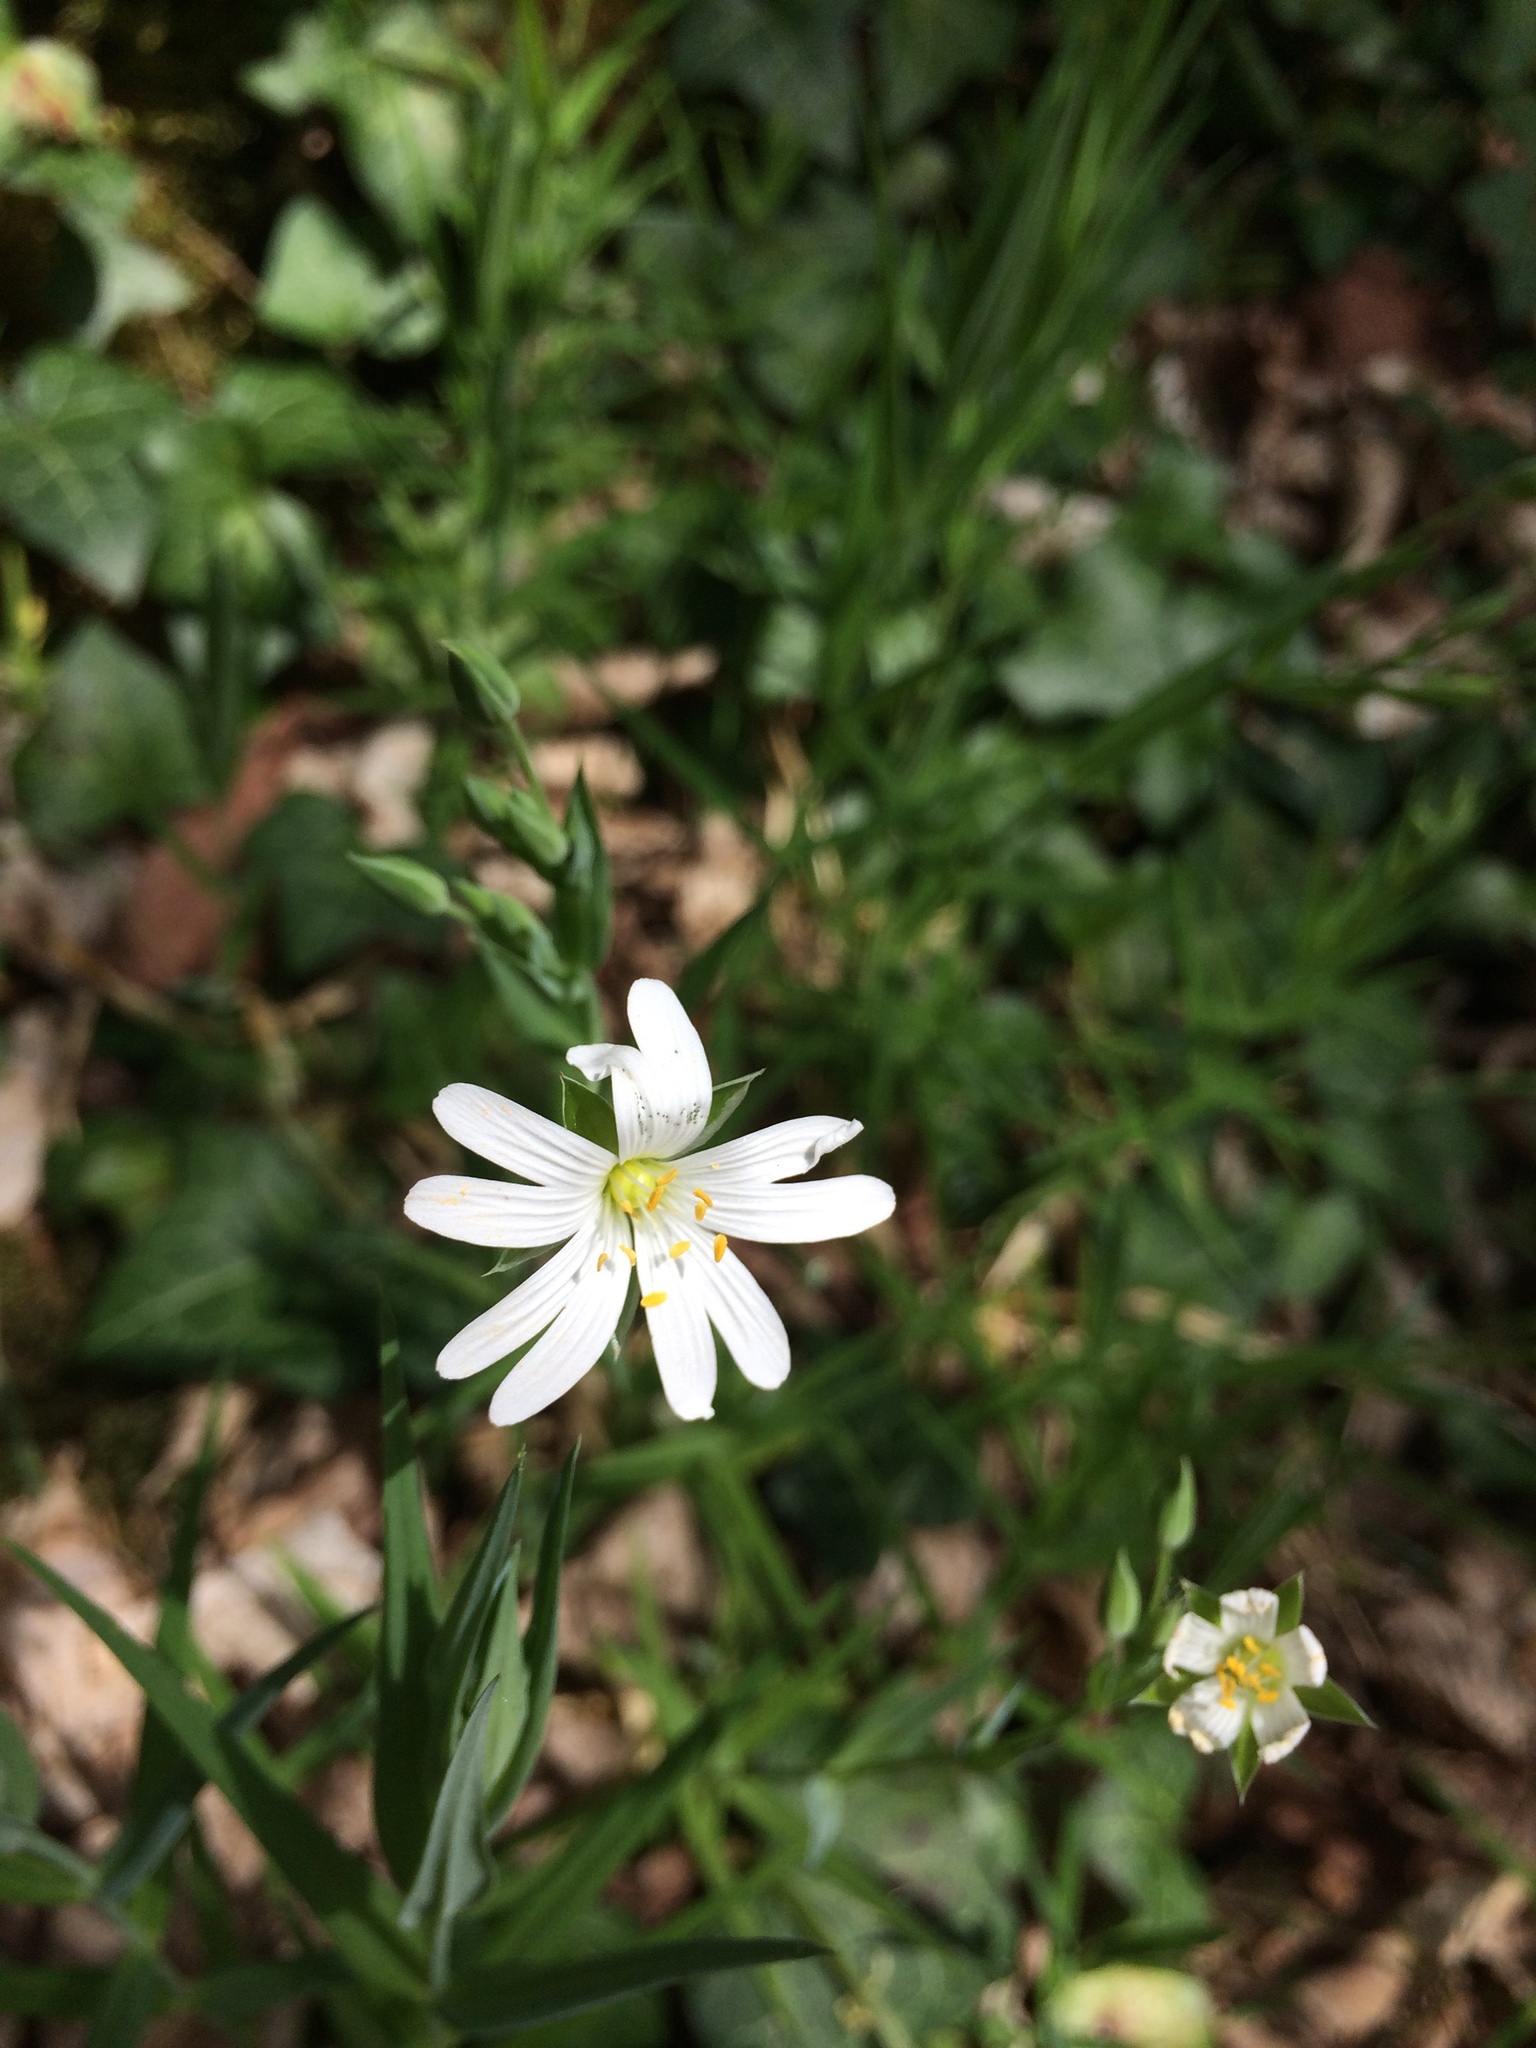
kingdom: Plantae
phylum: Tracheophyta
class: Magnoliopsida
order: Caryophyllales
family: Caryophyllaceae
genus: Rabelera
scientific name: Rabelera holostea
